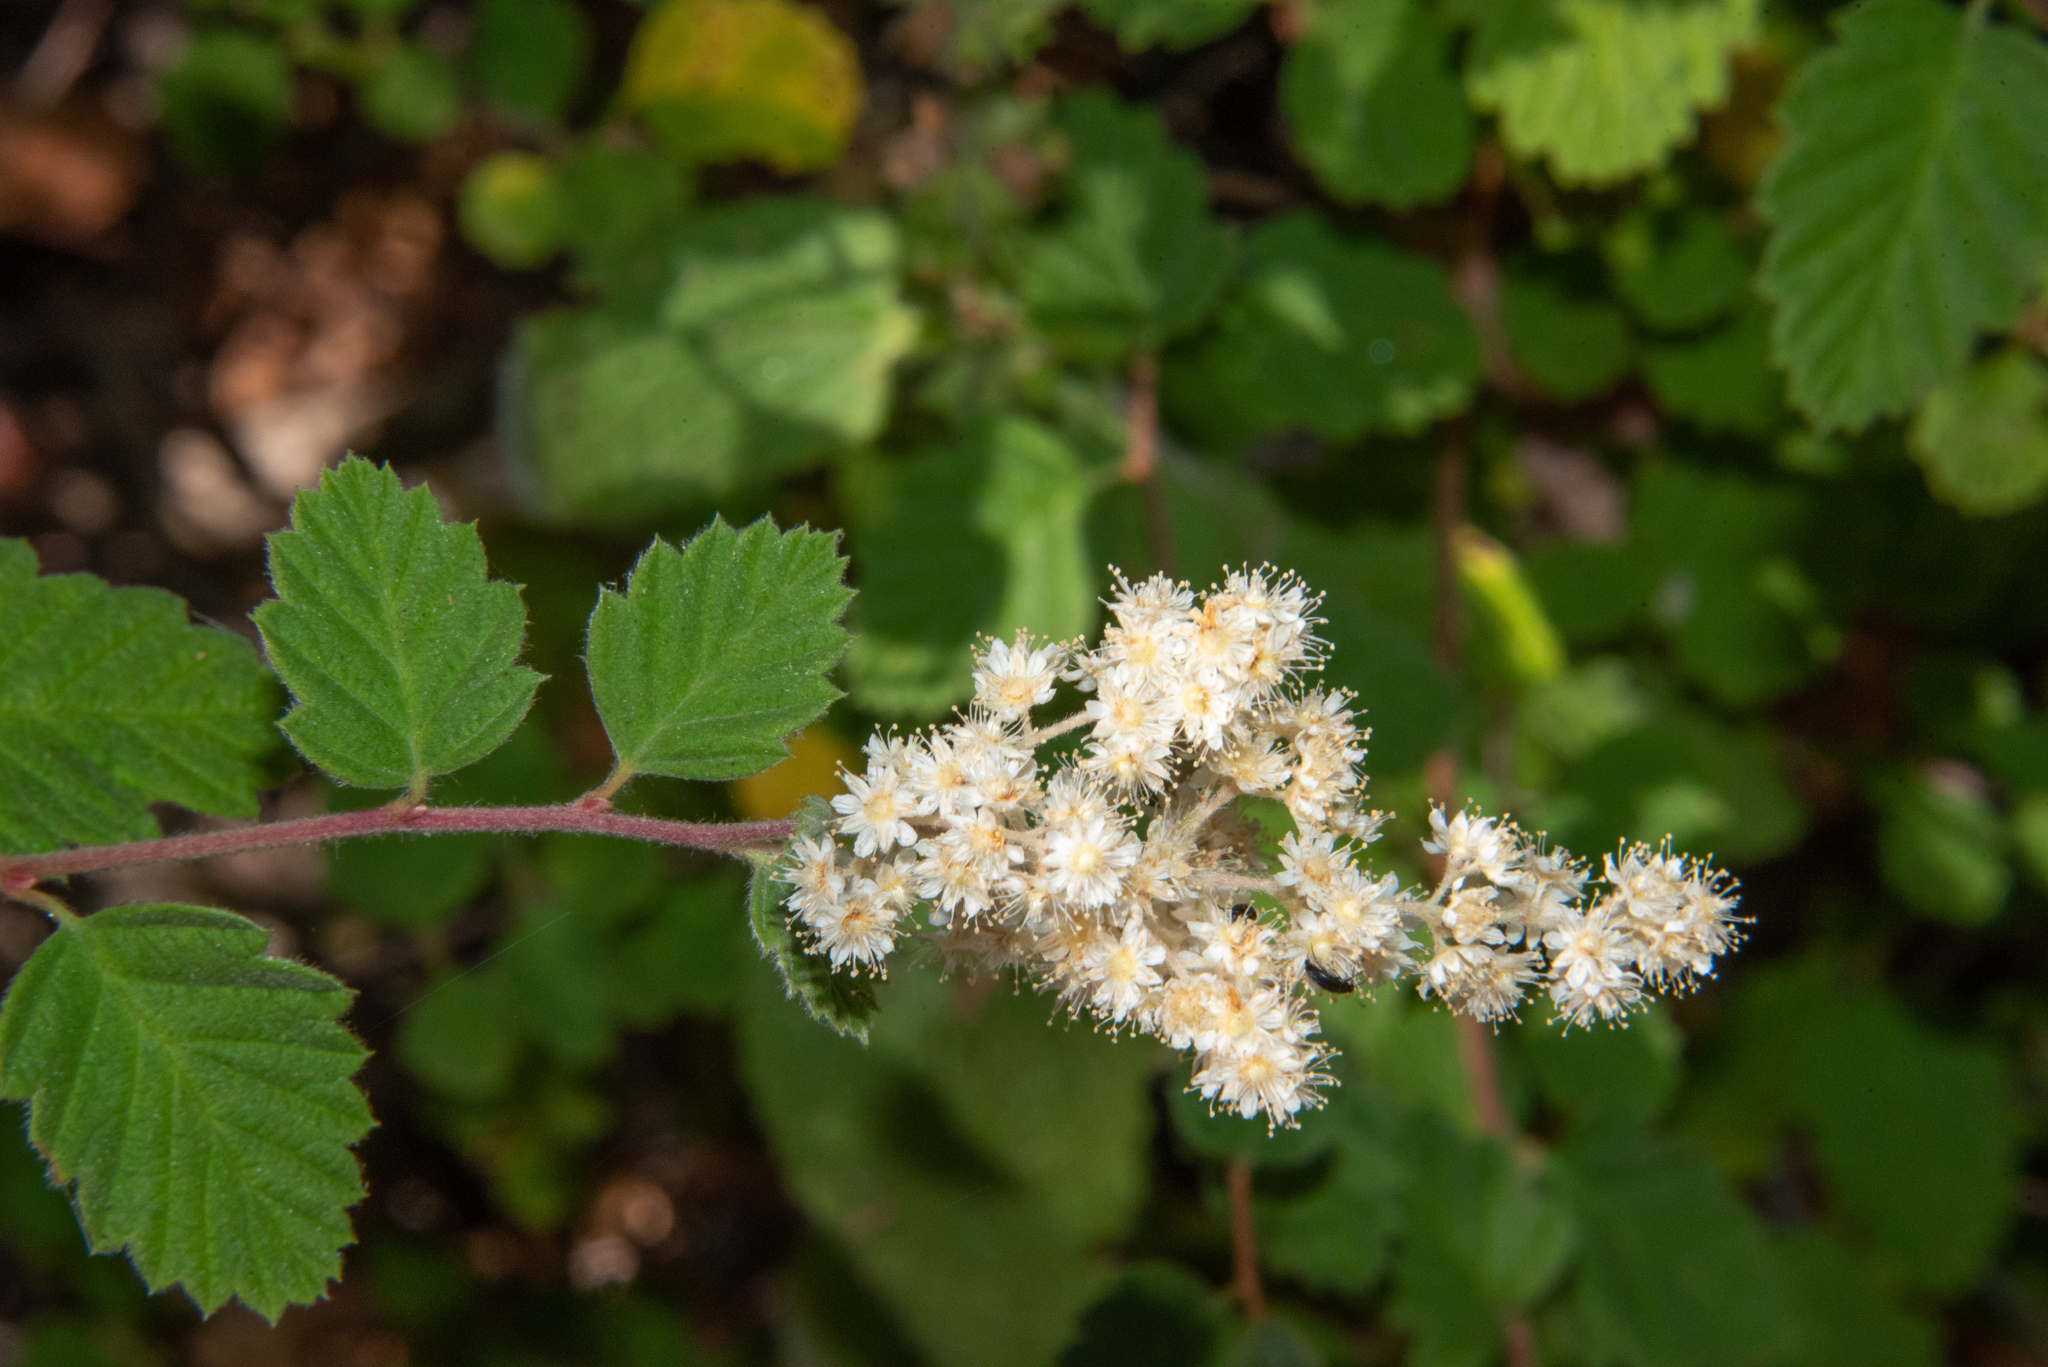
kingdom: Plantae
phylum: Tracheophyta
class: Magnoliopsida
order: Rosales
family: Rosaceae
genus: Holodiscus
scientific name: Holodiscus discolor
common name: Oceanspray
